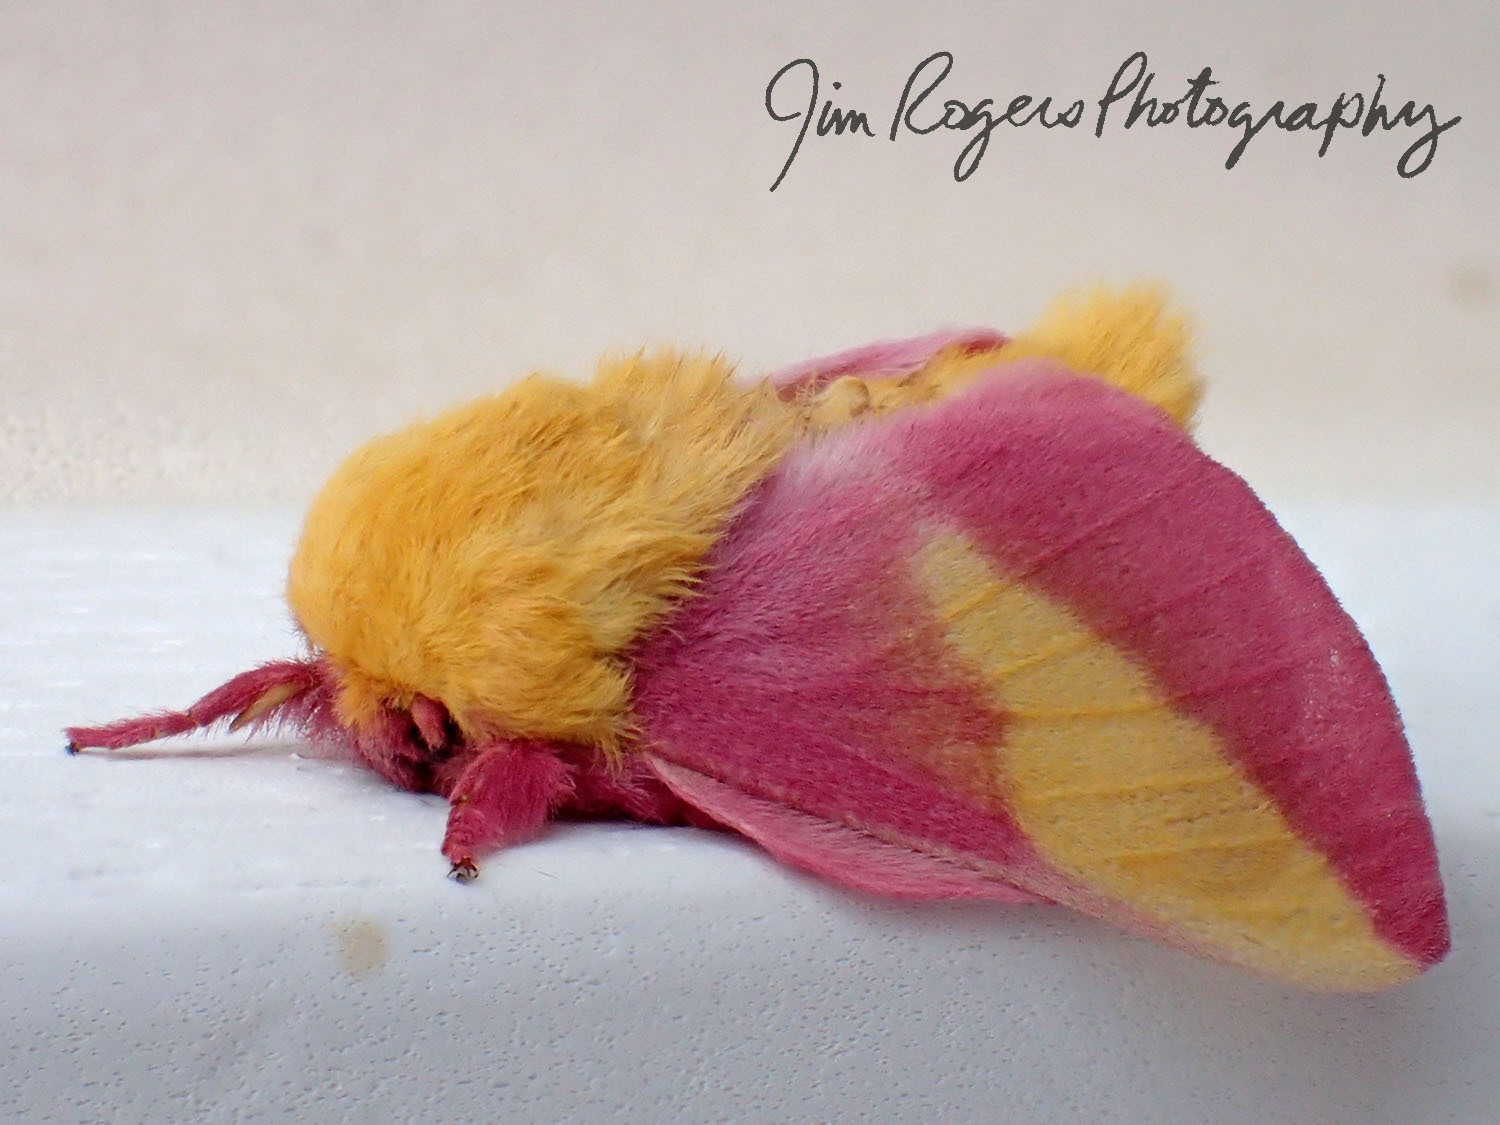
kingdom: Animalia
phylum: Arthropoda
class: Insecta
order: Lepidoptera
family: Saturniidae
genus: Dryocampa
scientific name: Dryocampa rubicunda
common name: Rosy maple moth
